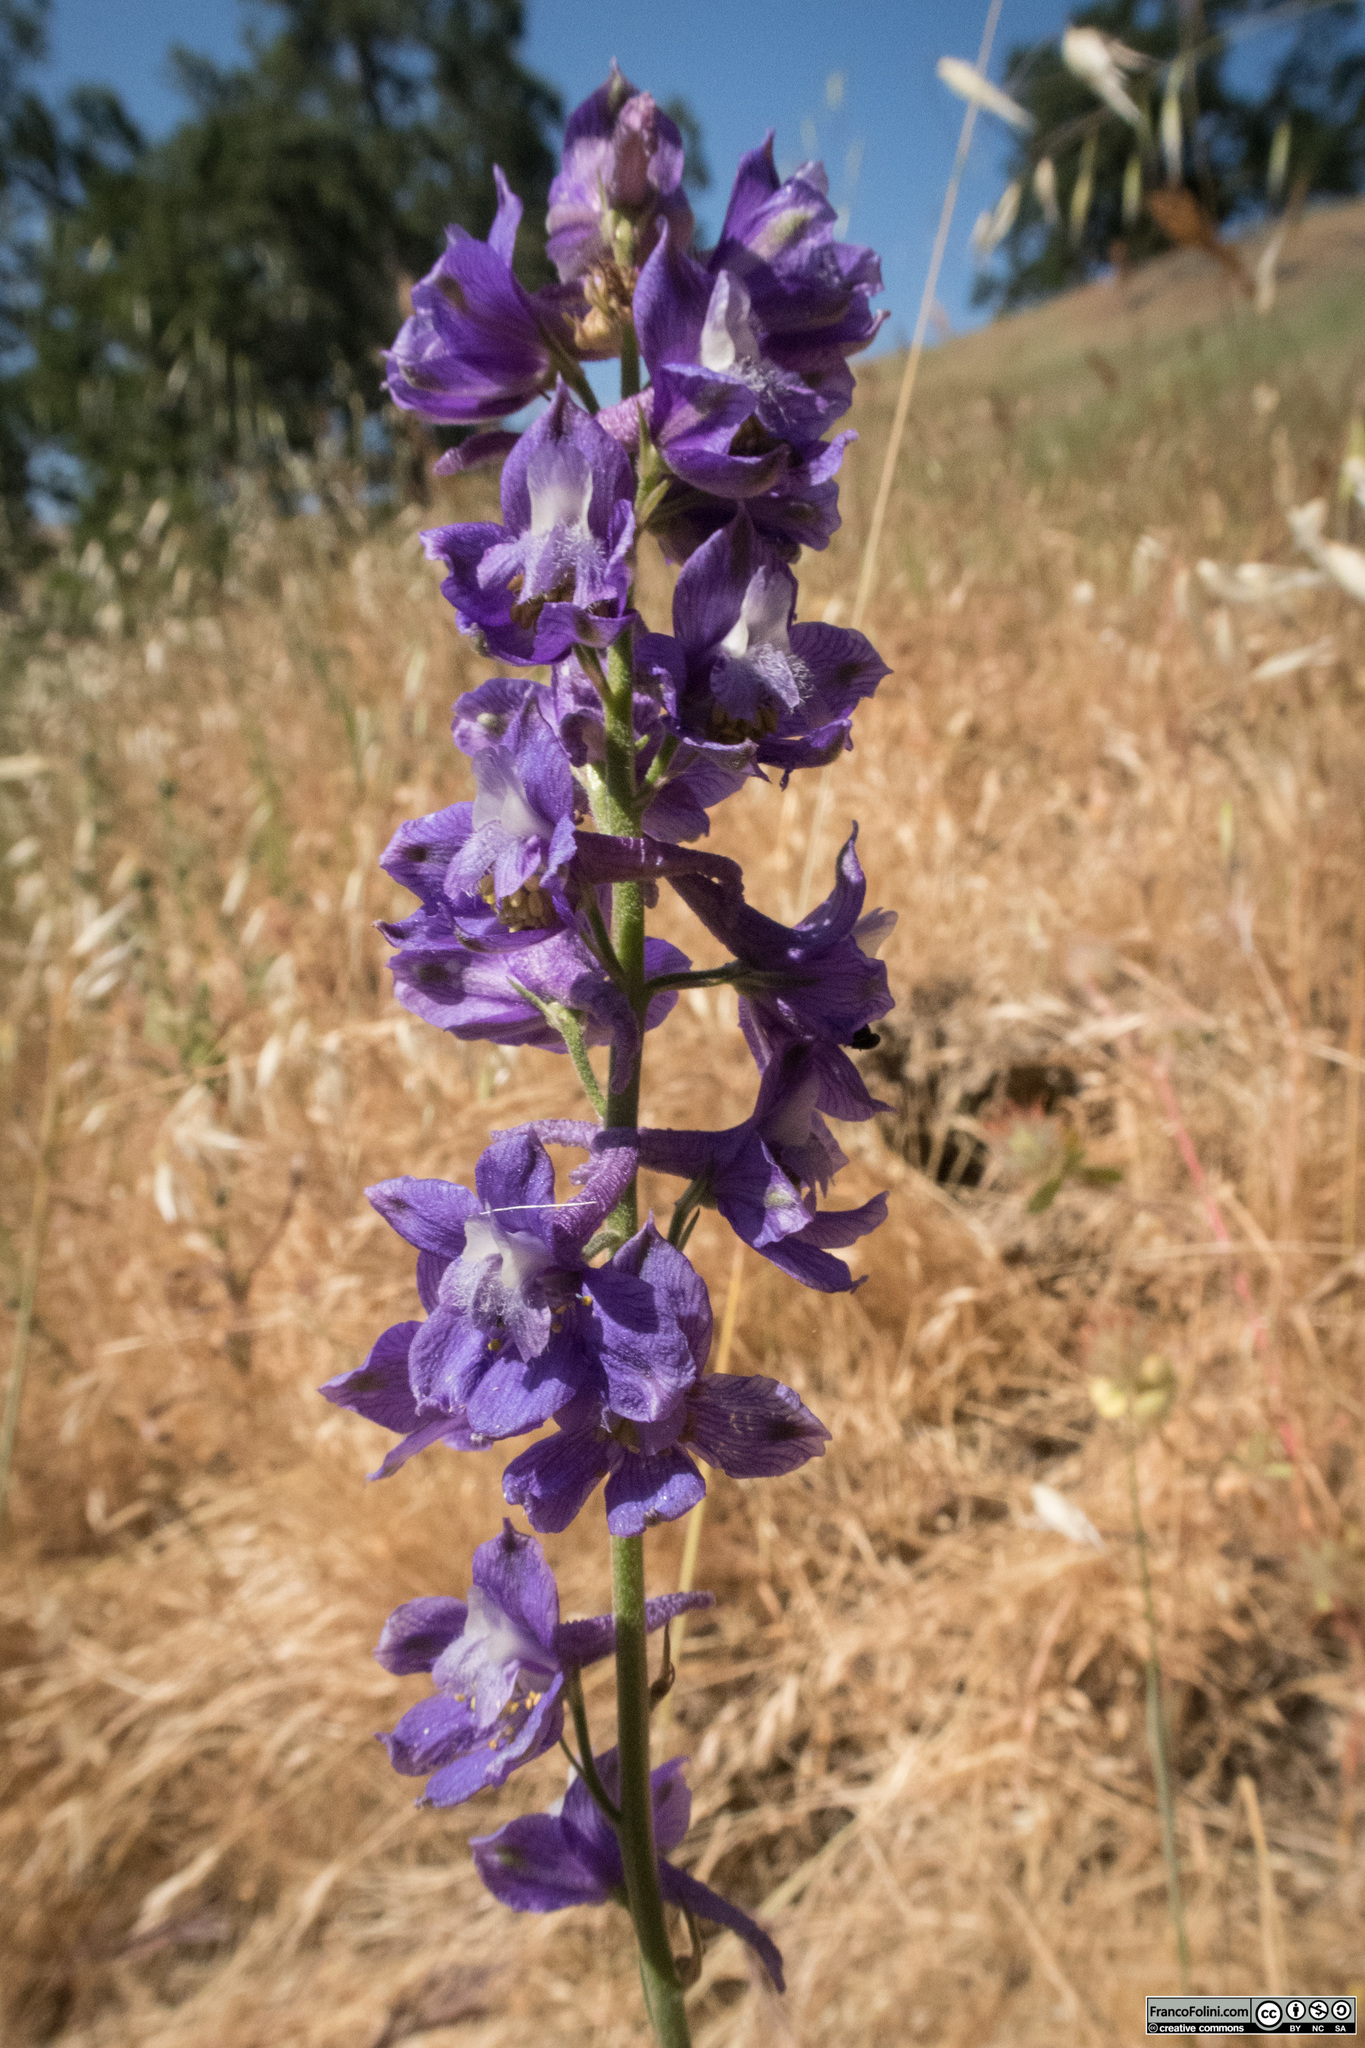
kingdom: Plantae
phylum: Tracheophyta
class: Magnoliopsida
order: Ranunculales
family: Ranunculaceae
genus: Delphinium
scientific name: Delphinium hesperium
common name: Western larkspur
